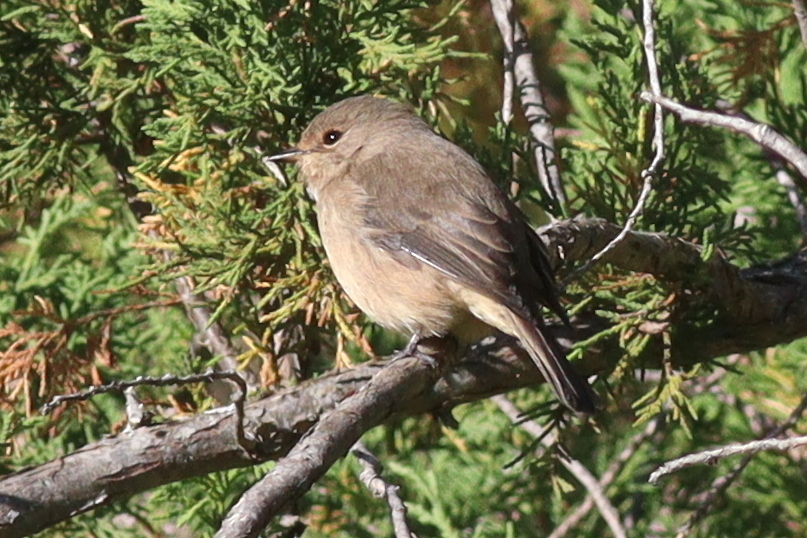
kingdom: Animalia
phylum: Chordata
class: Aves
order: Passeriformes
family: Muscicapidae
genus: Muscicapa
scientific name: Muscicapa adusta
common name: African dusky flycatcher
